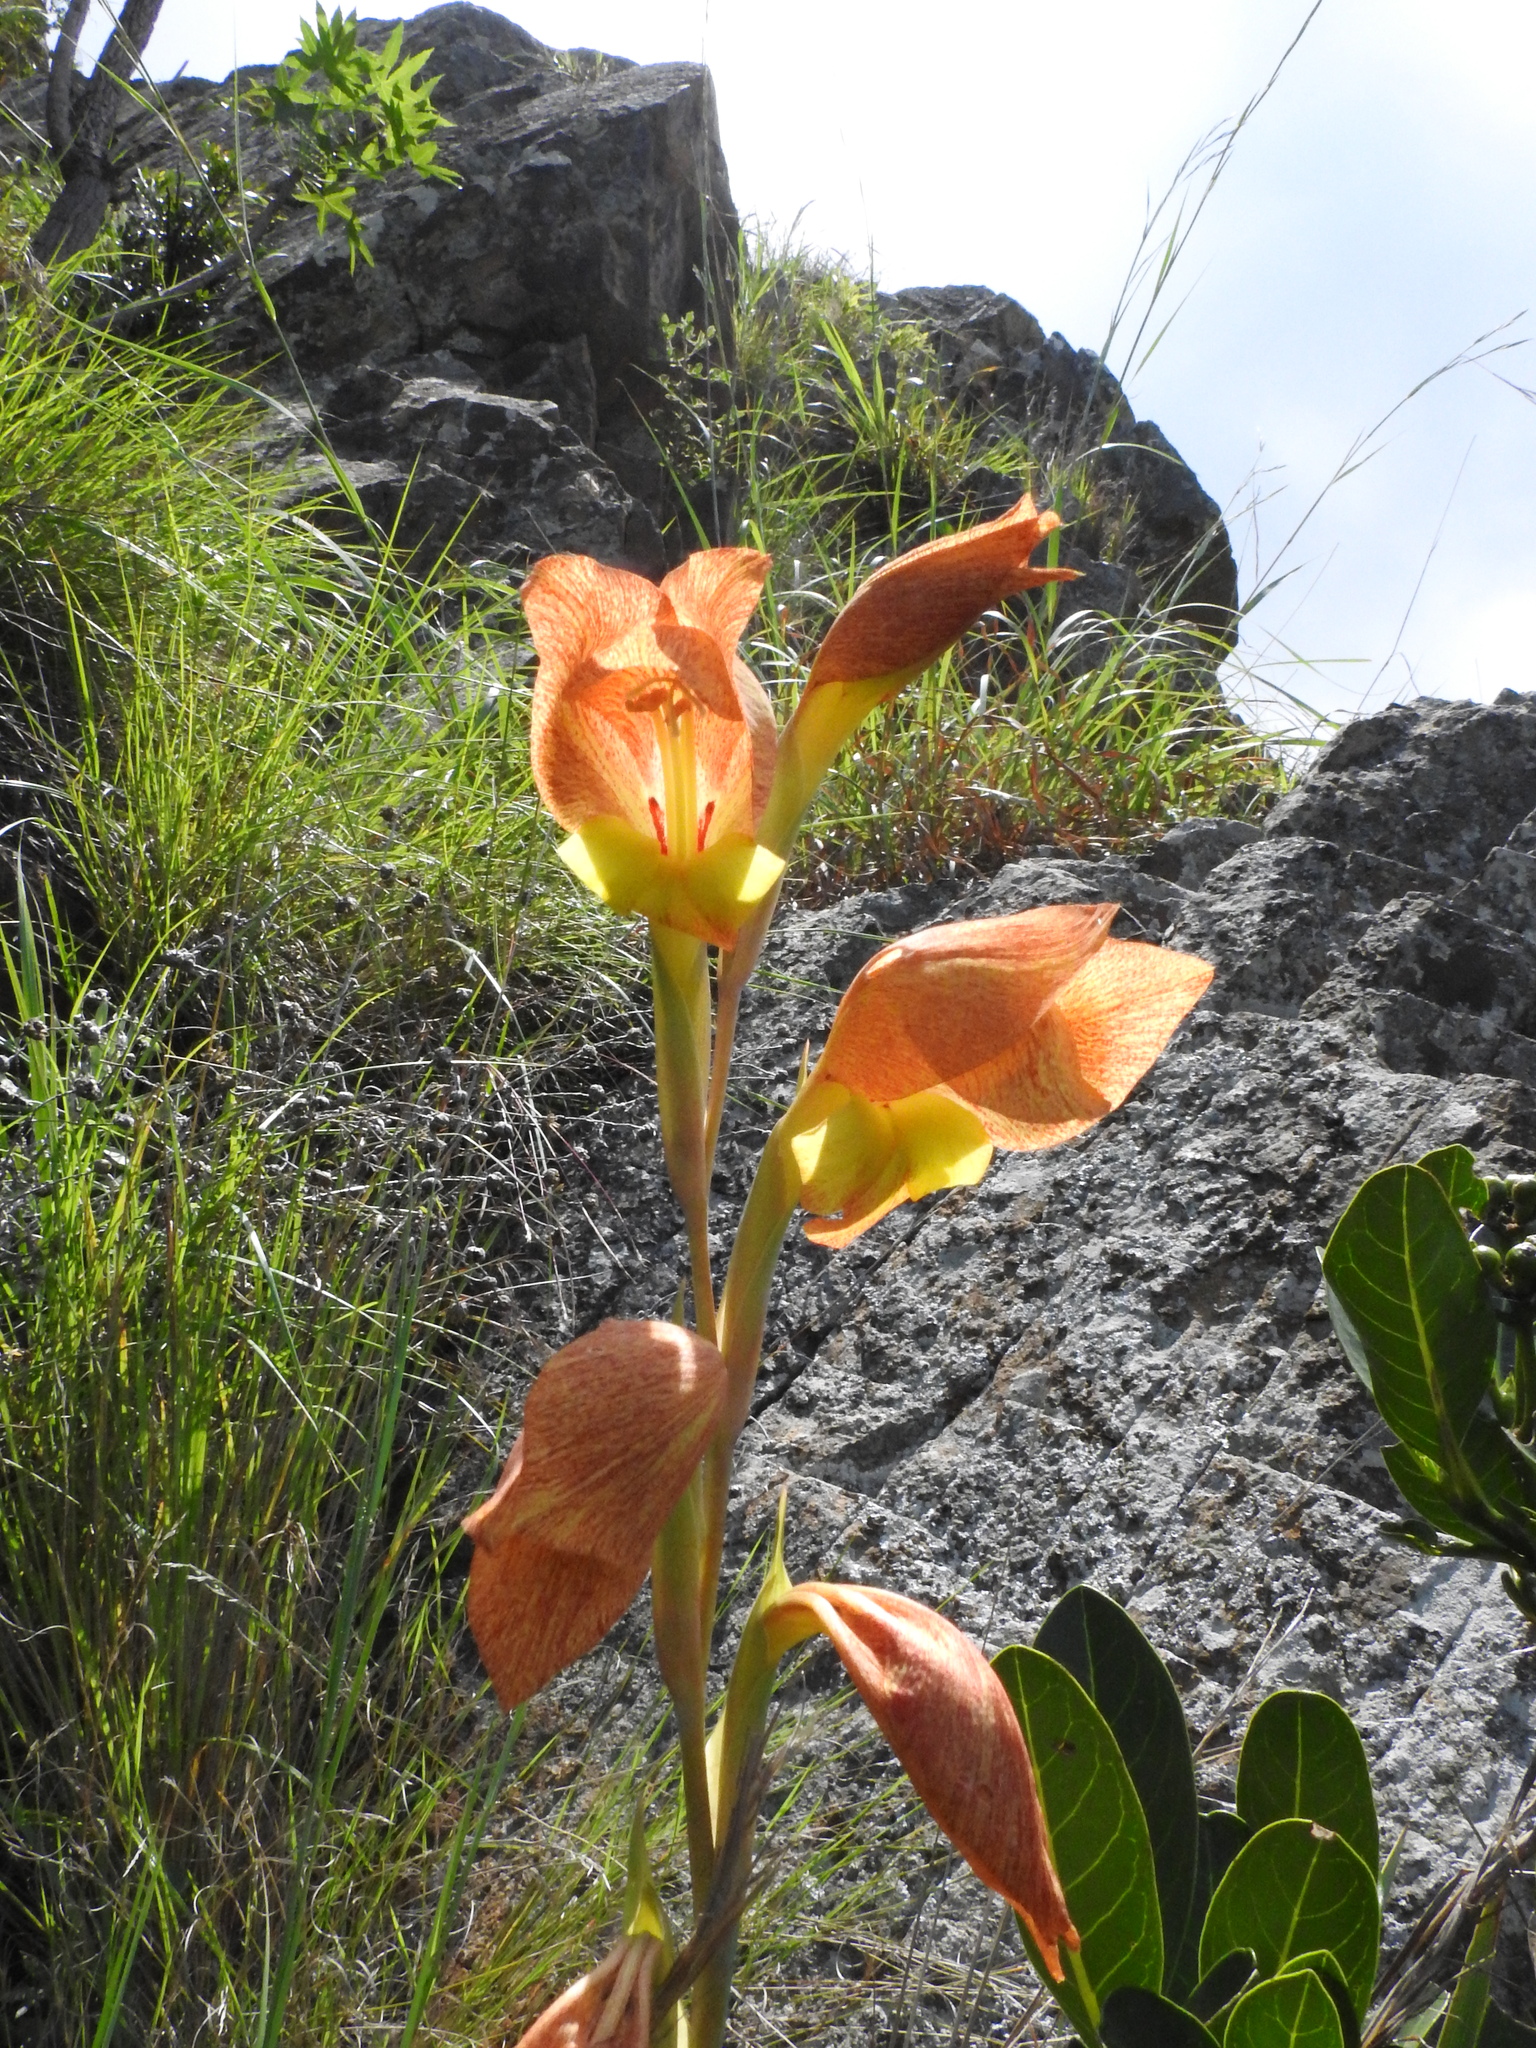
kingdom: Plantae
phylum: Tracheophyta
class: Liliopsida
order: Asparagales
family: Iridaceae
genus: Gladiolus
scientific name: Gladiolus dalenii
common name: Cornflag
